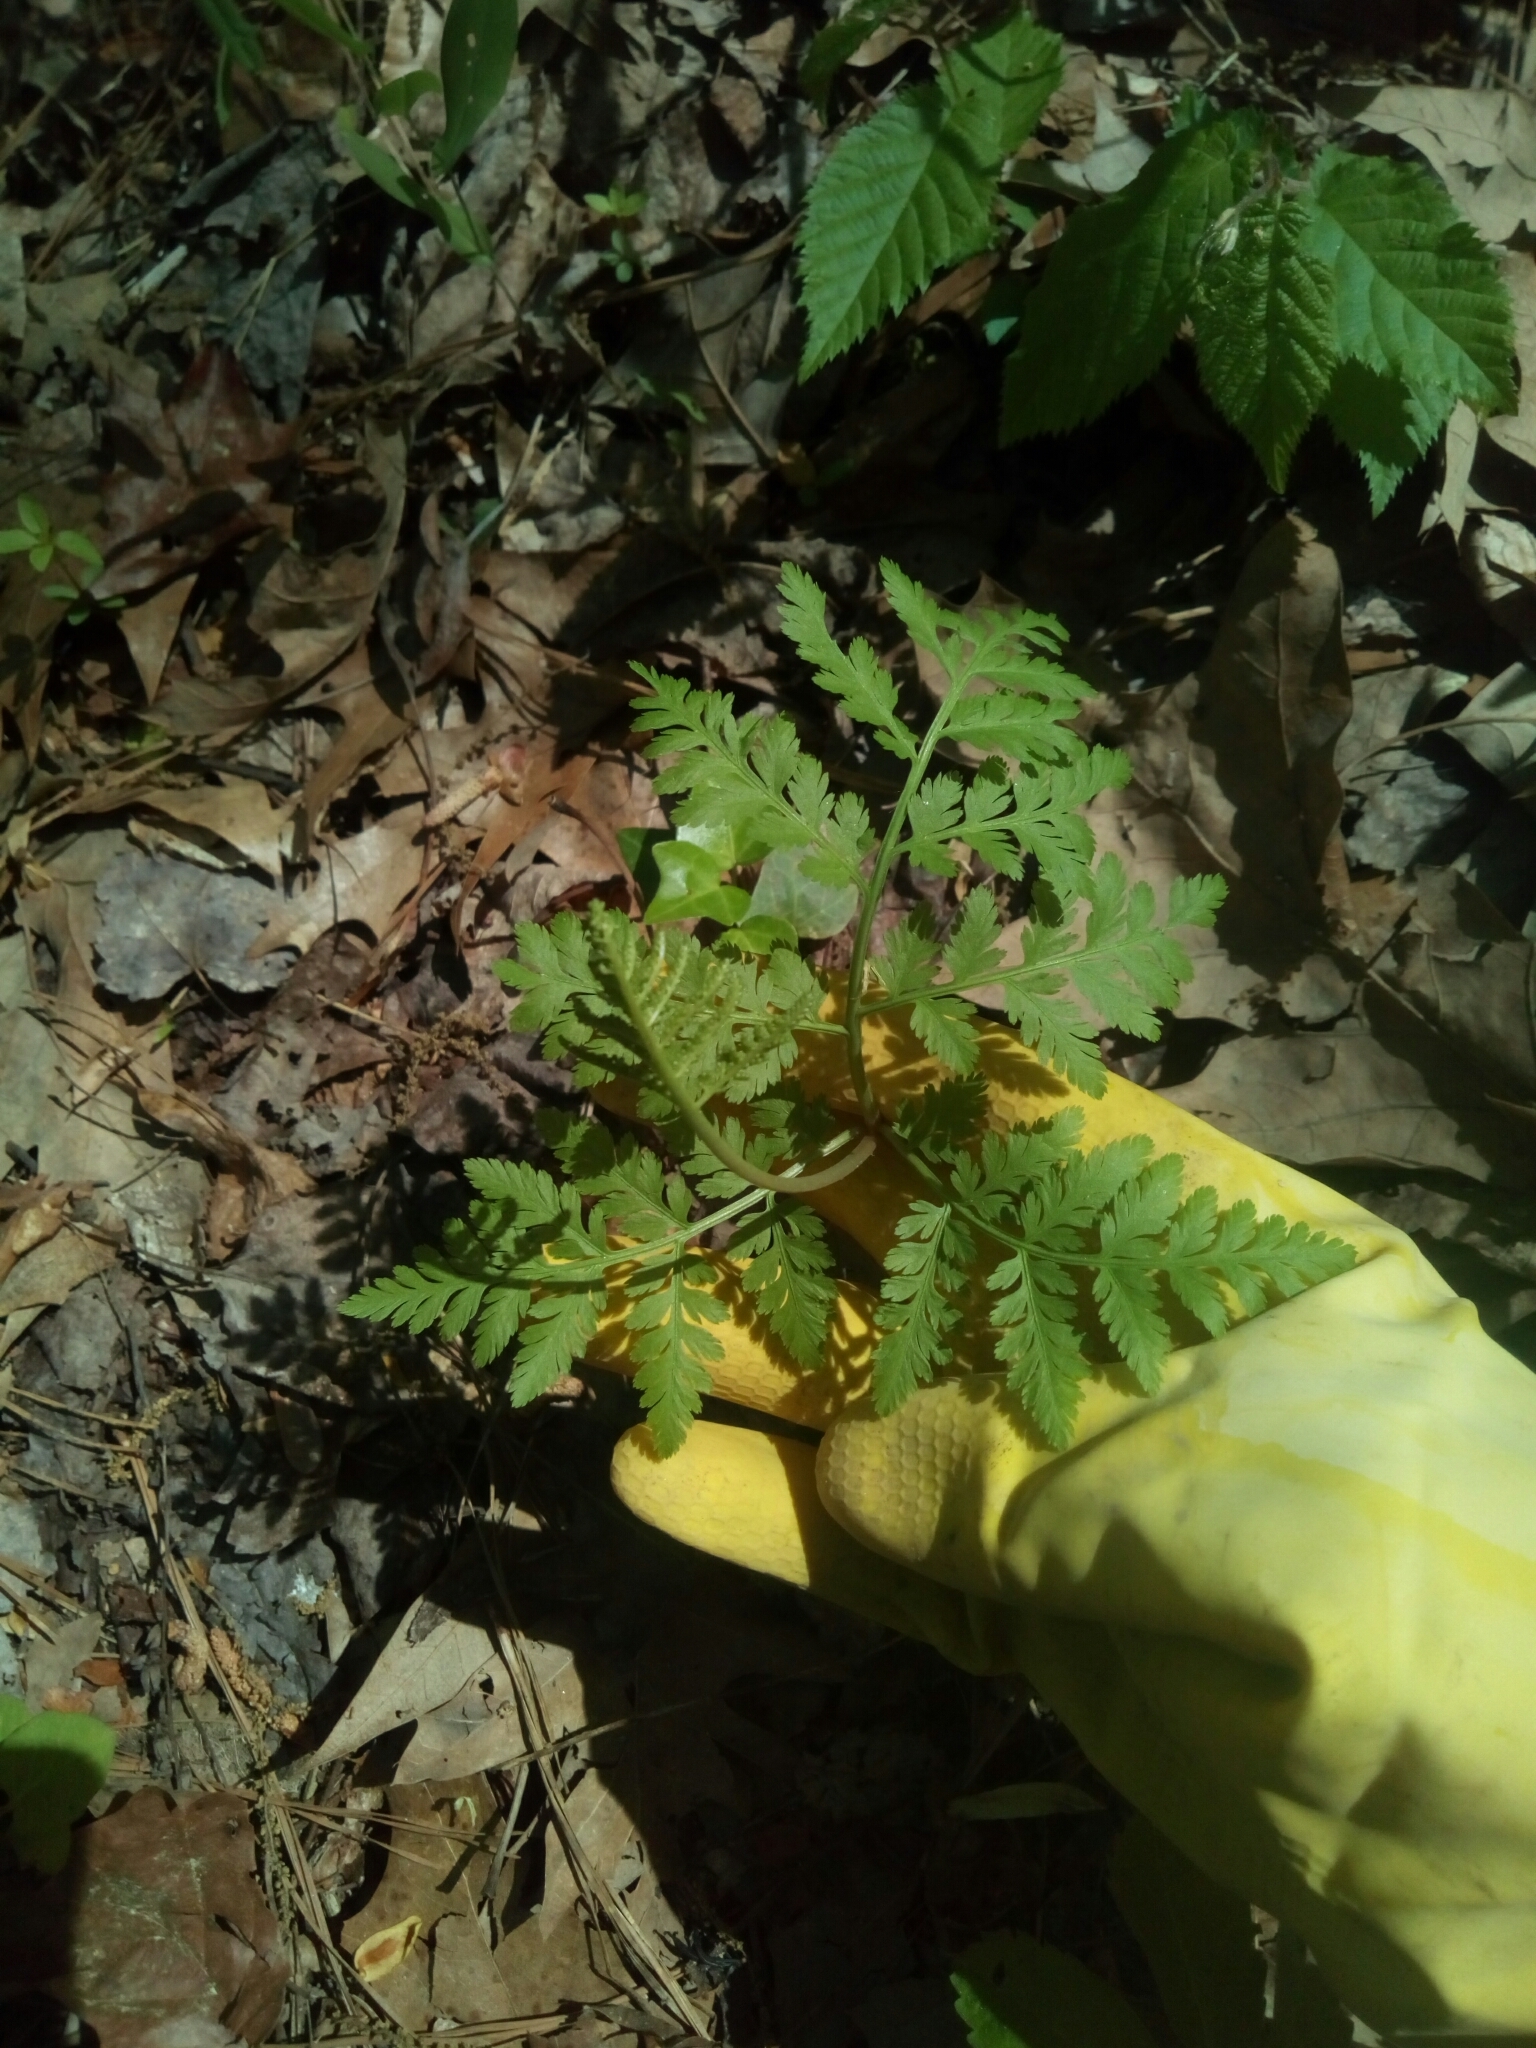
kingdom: Plantae
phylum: Tracheophyta
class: Polypodiopsida
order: Ophioglossales
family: Ophioglossaceae
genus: Botrypus
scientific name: Botrypus virginianus
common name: Common grapefern
